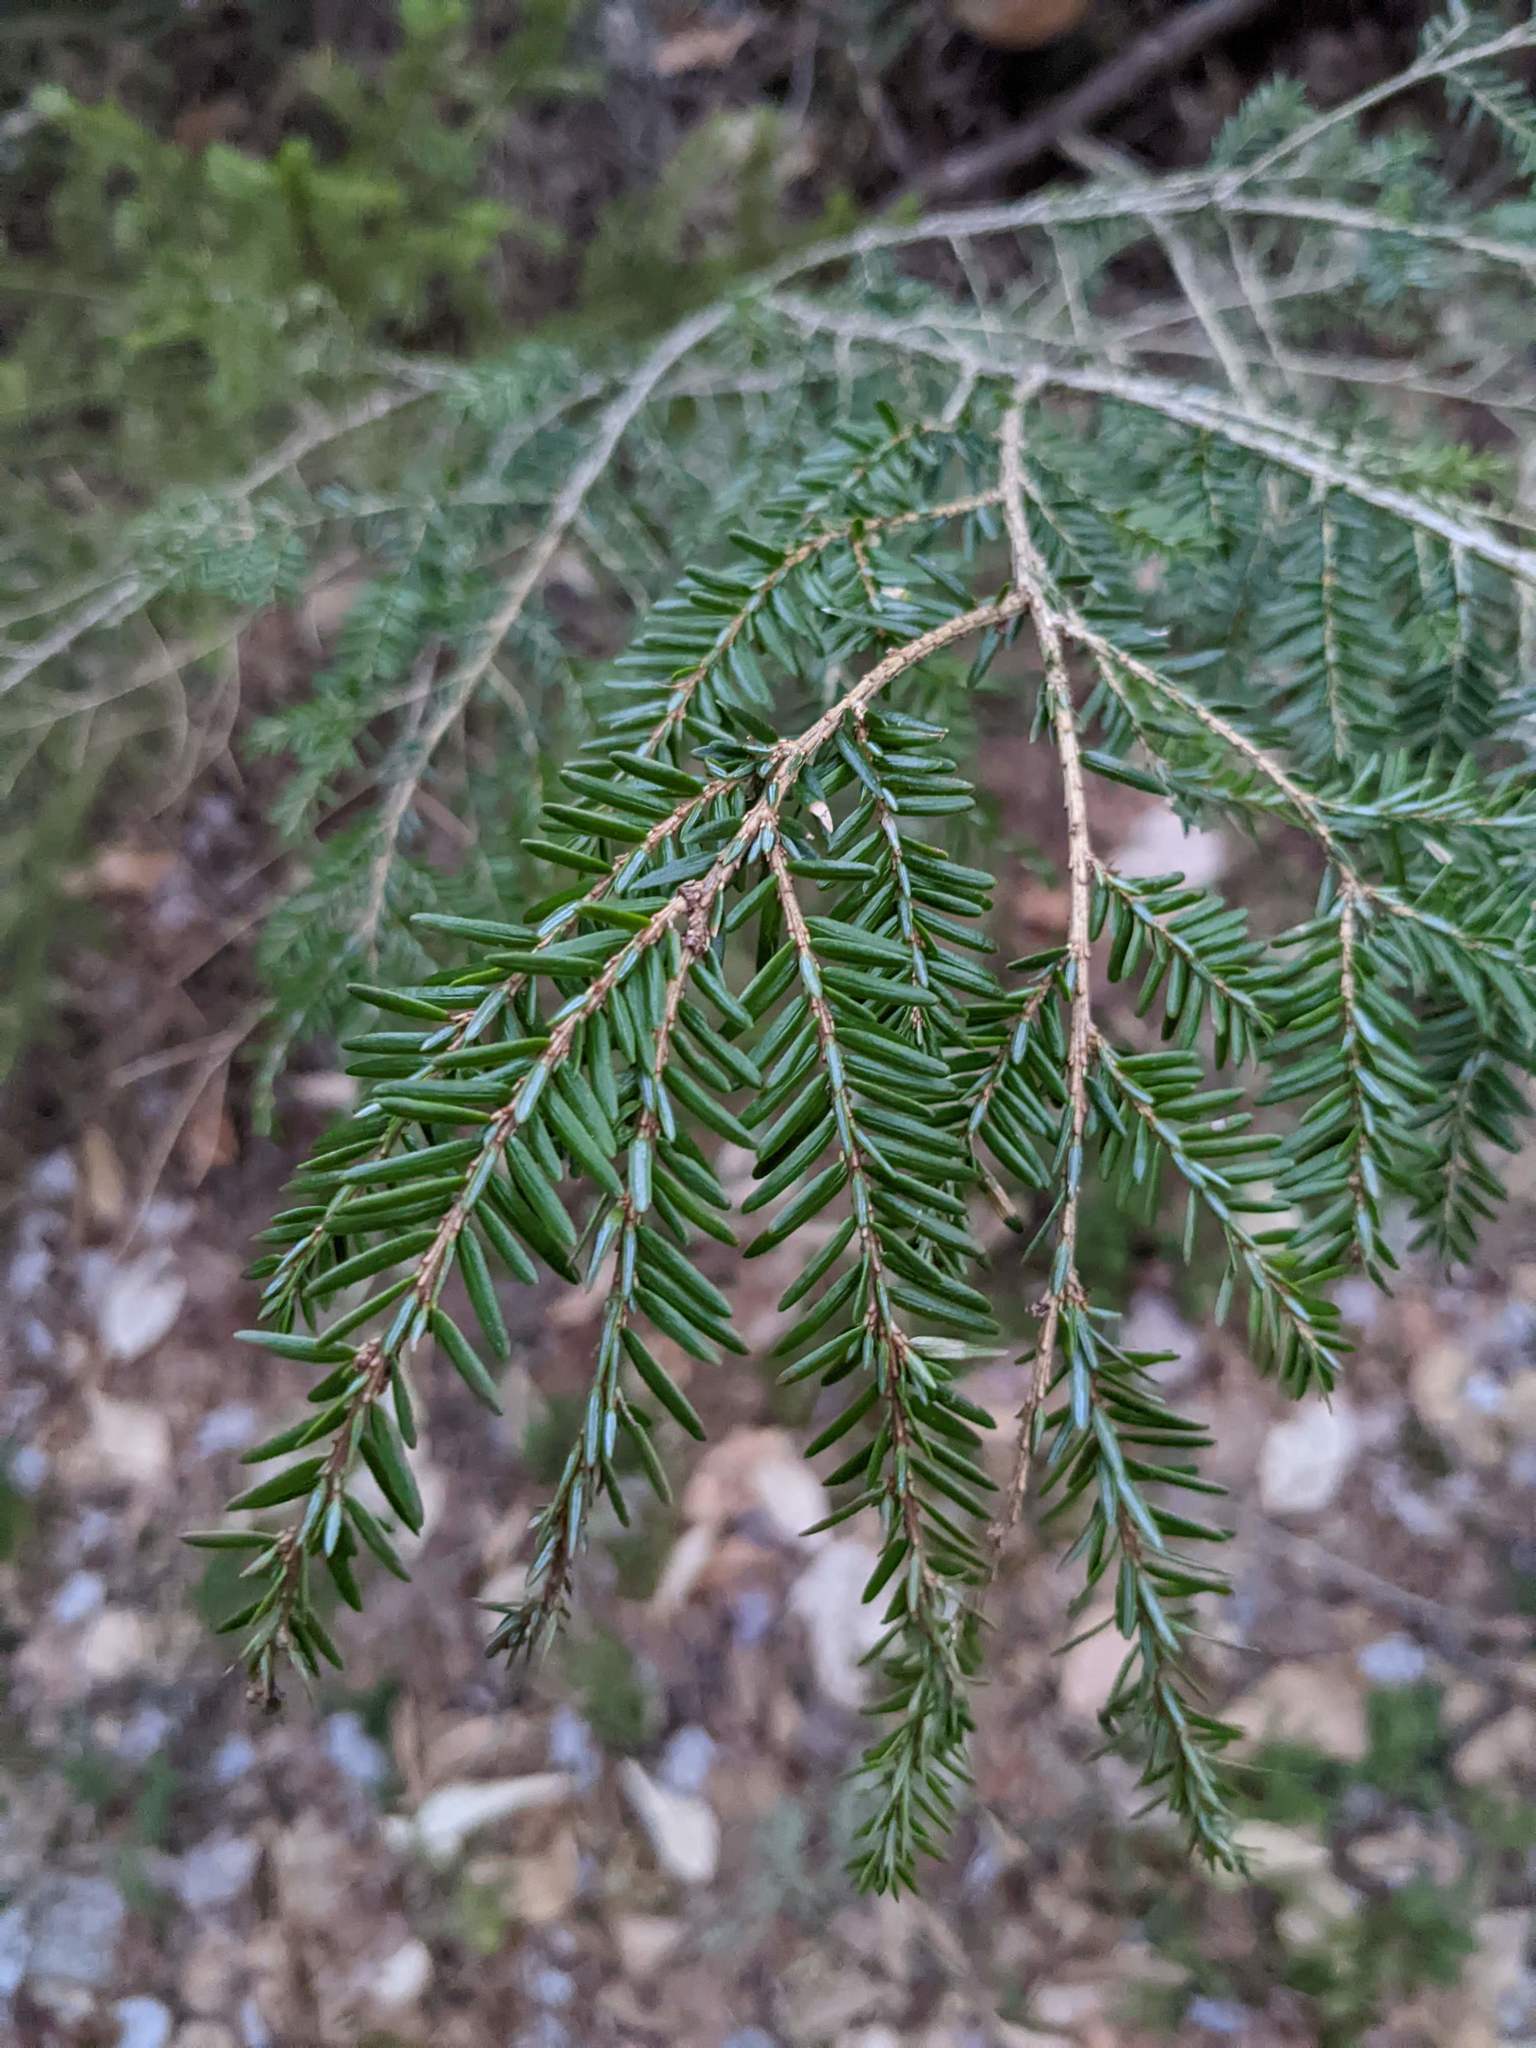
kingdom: Plantae
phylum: Tracheophyta
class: Pinopsida
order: Pinales
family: Pinaceae
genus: Tsuga
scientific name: Tsuga canadensis
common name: Eastern hemlock
